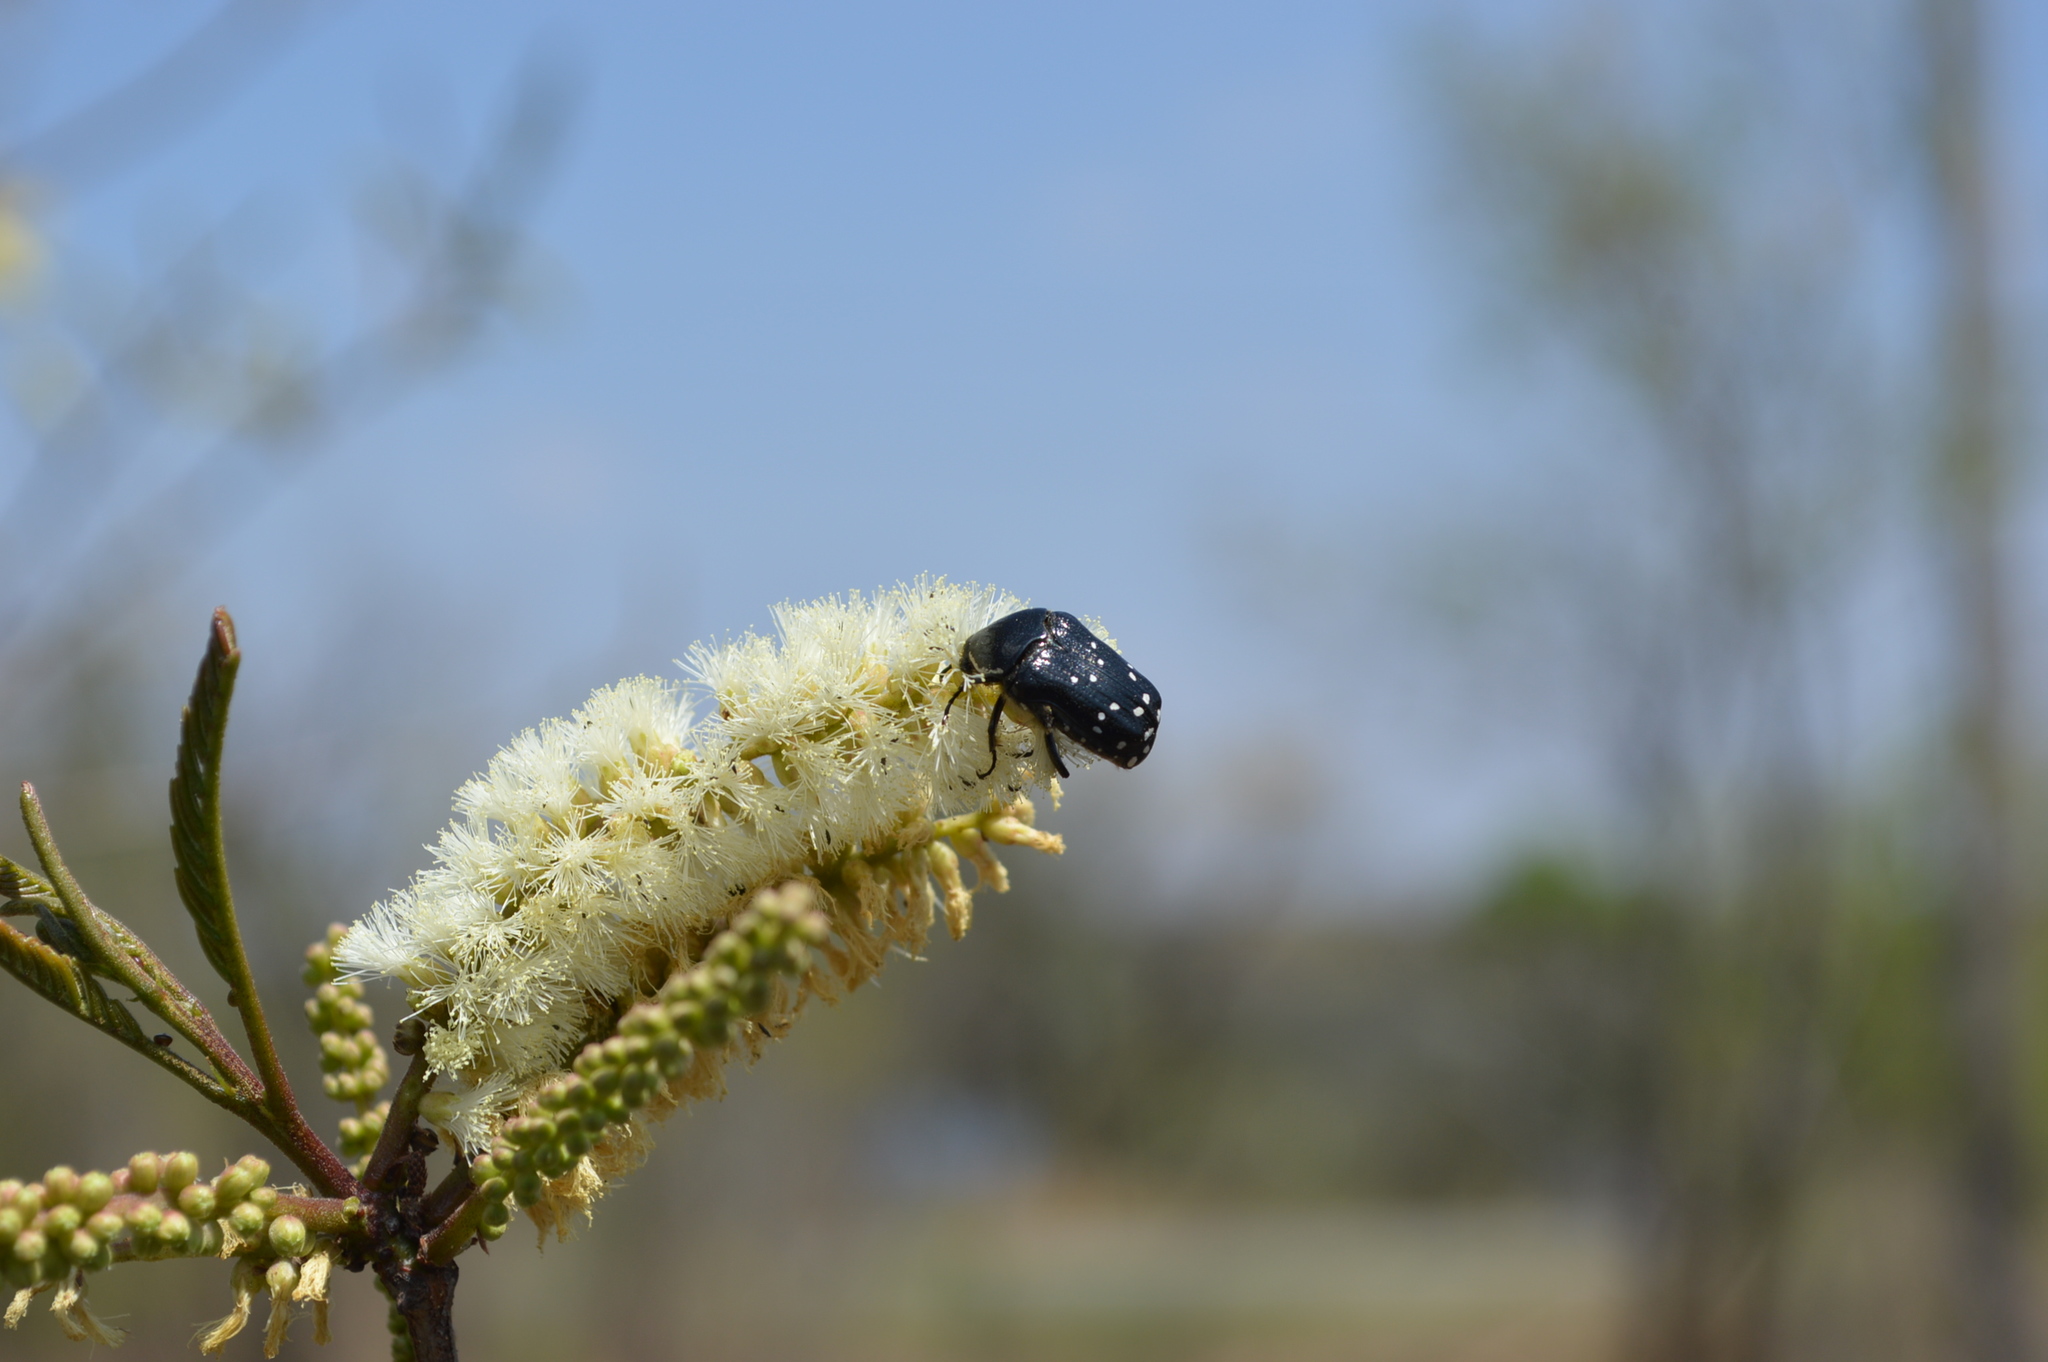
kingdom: Animalia
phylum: Arthropoda
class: Insecta
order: Coleoptera
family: Scarabaeidae
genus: Clinteroides
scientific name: Clinteroides permutans
